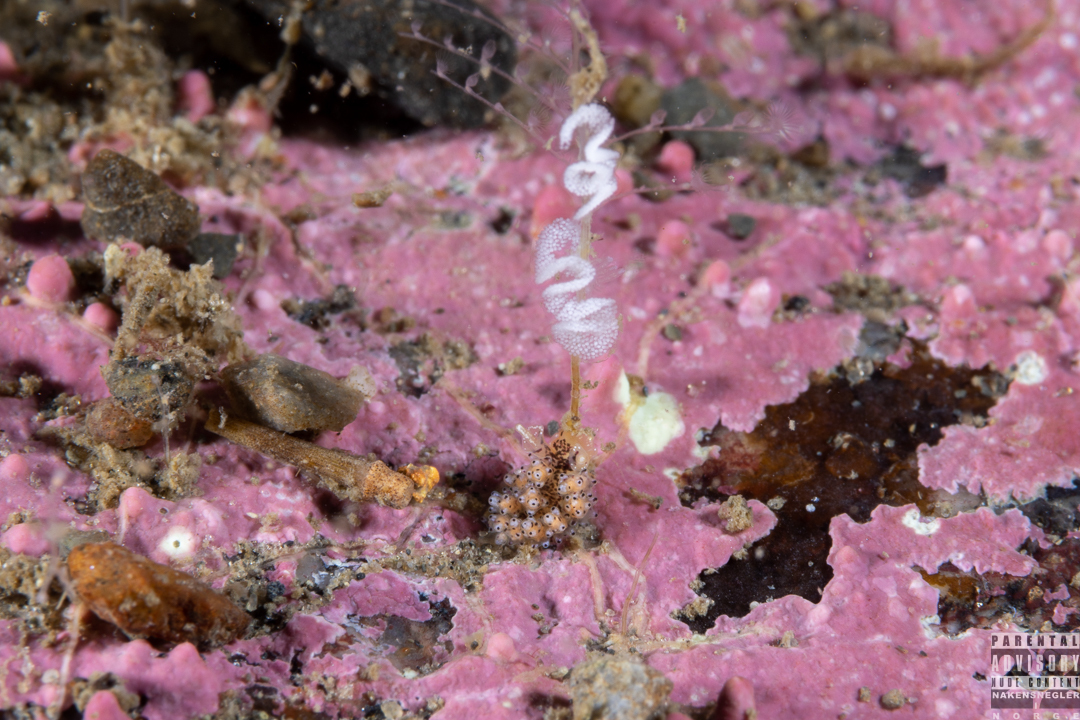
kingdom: Animalia
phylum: Mollusca
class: Gastropoda
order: Nudibranchia
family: Dotidae
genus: Doto
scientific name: Doto dunnei
